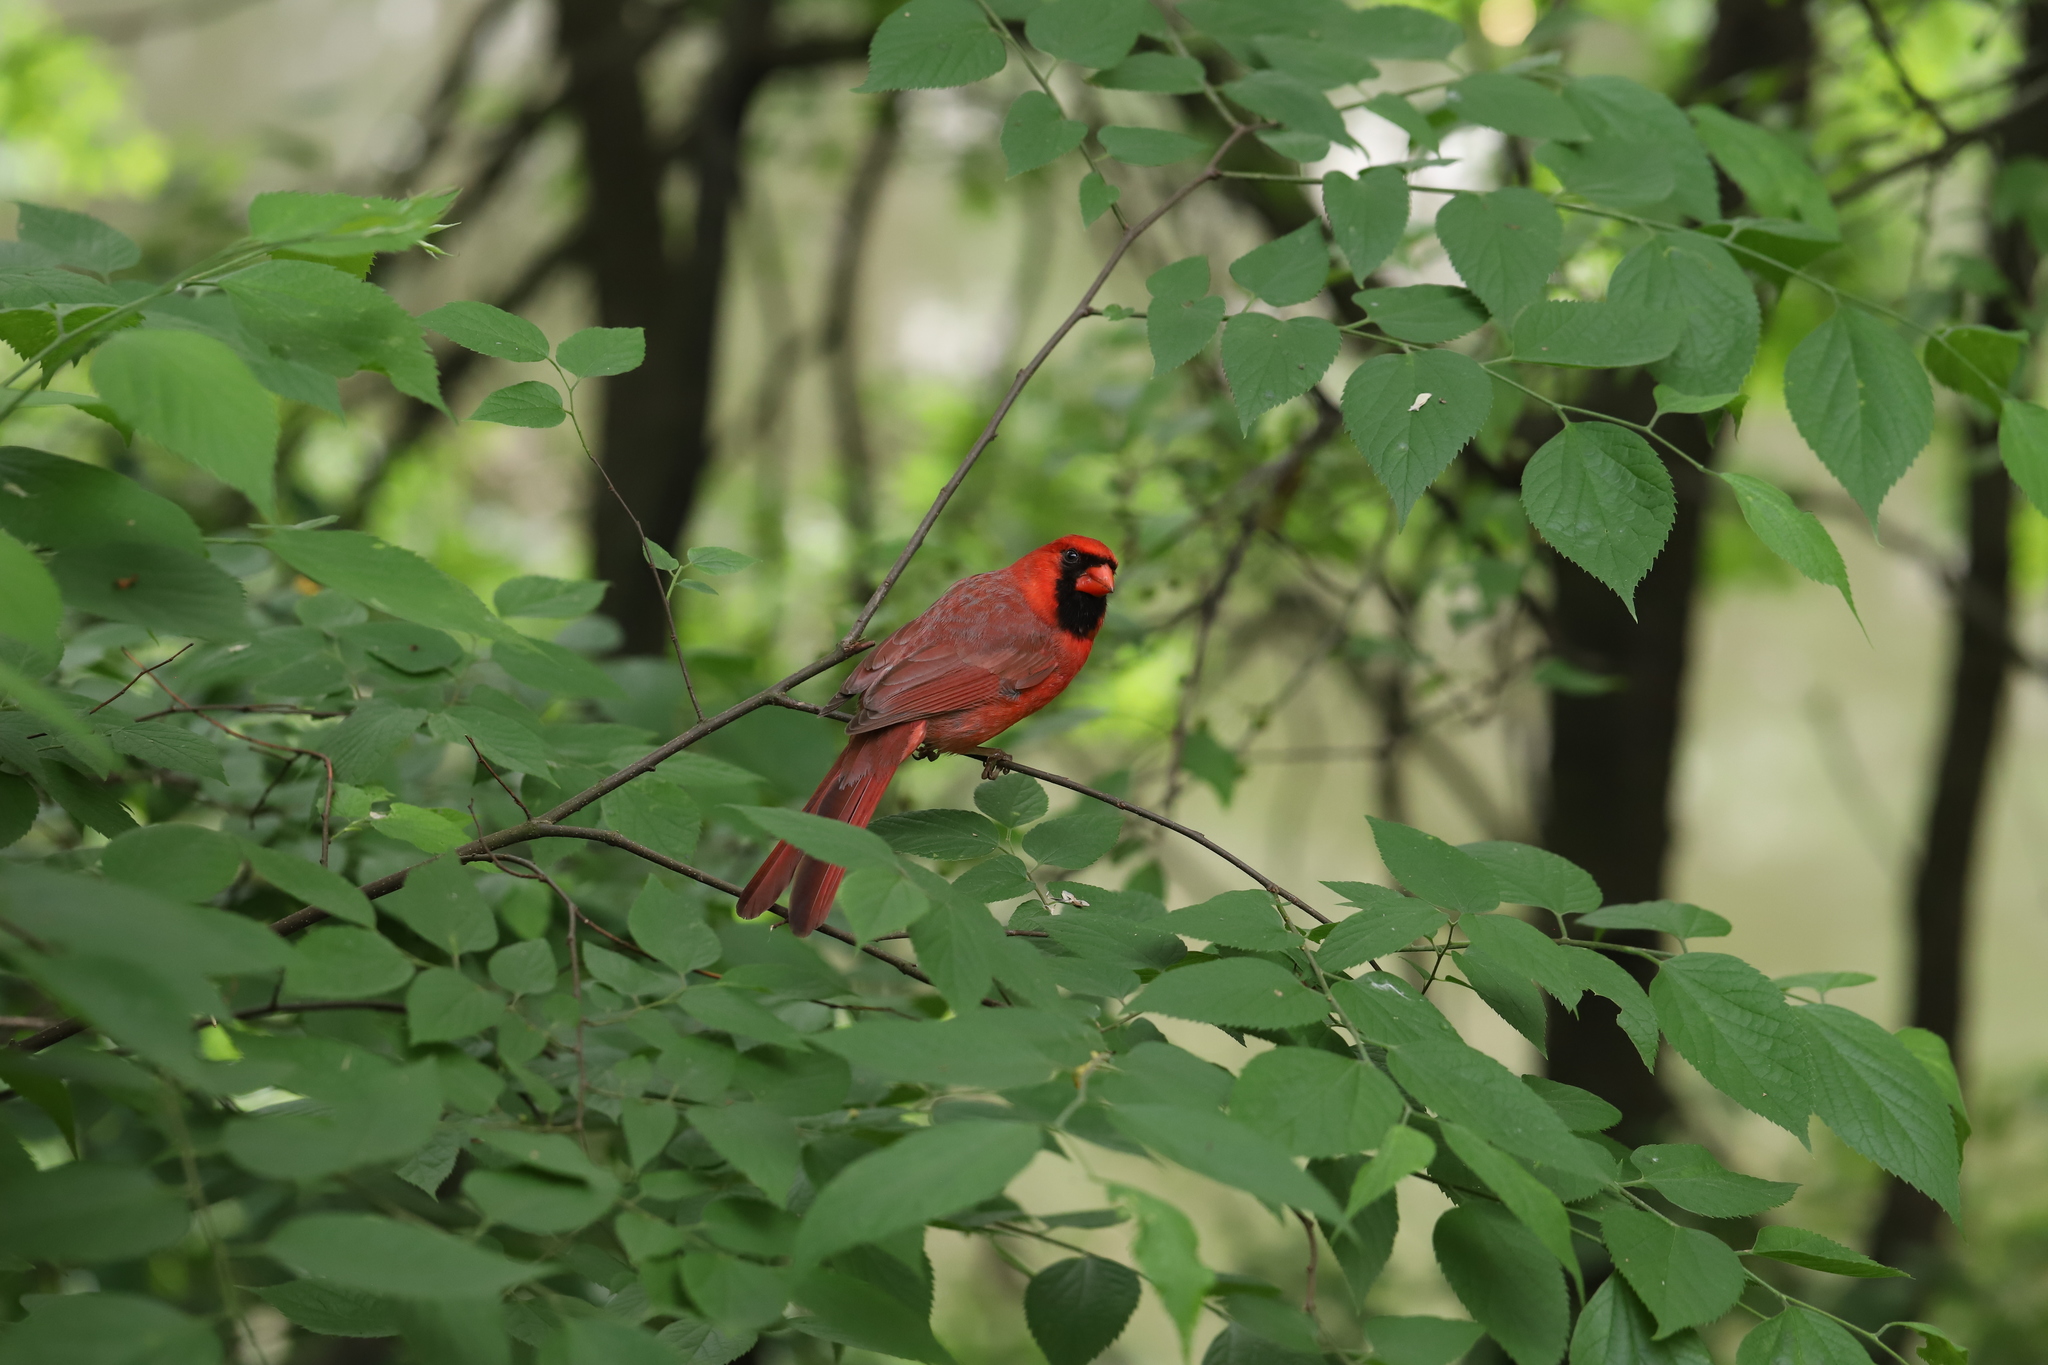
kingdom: Animalia
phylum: Chordata
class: Aves
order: Passeriformes
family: Cardinalidae
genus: Cardinalis
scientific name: Cardinalis cardinalis
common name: Northern cardinal
